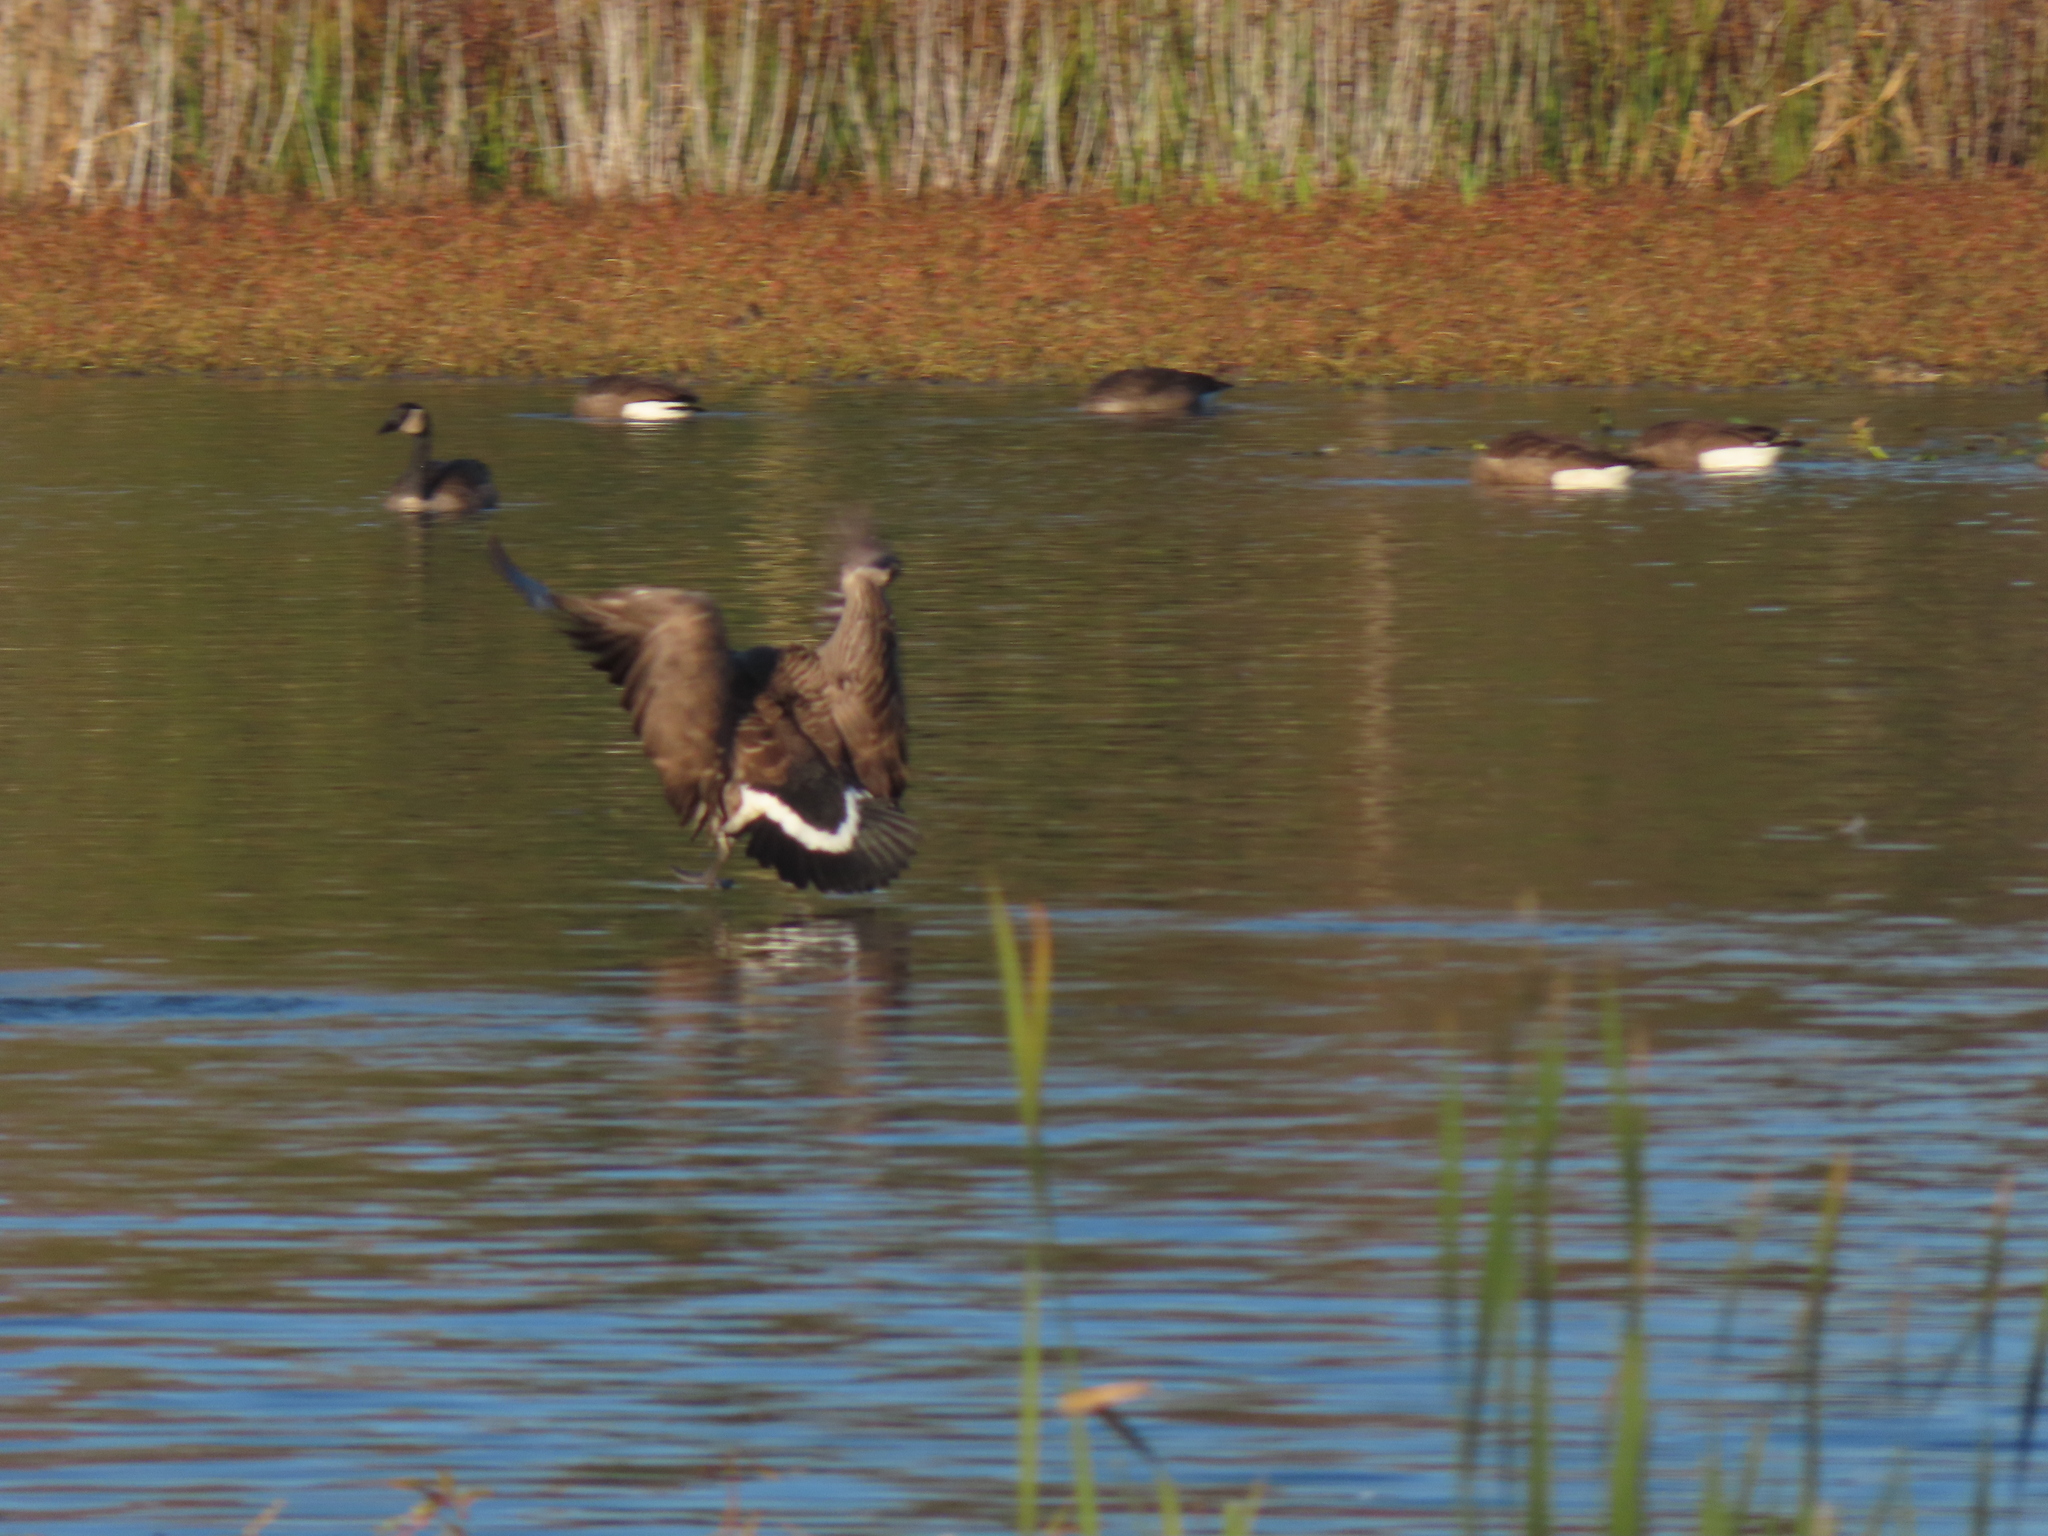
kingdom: Animalia
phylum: Chordata
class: Aves
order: Anseriformes
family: Anatidae
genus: Branta
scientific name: Branta canadensis
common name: Canada goose
